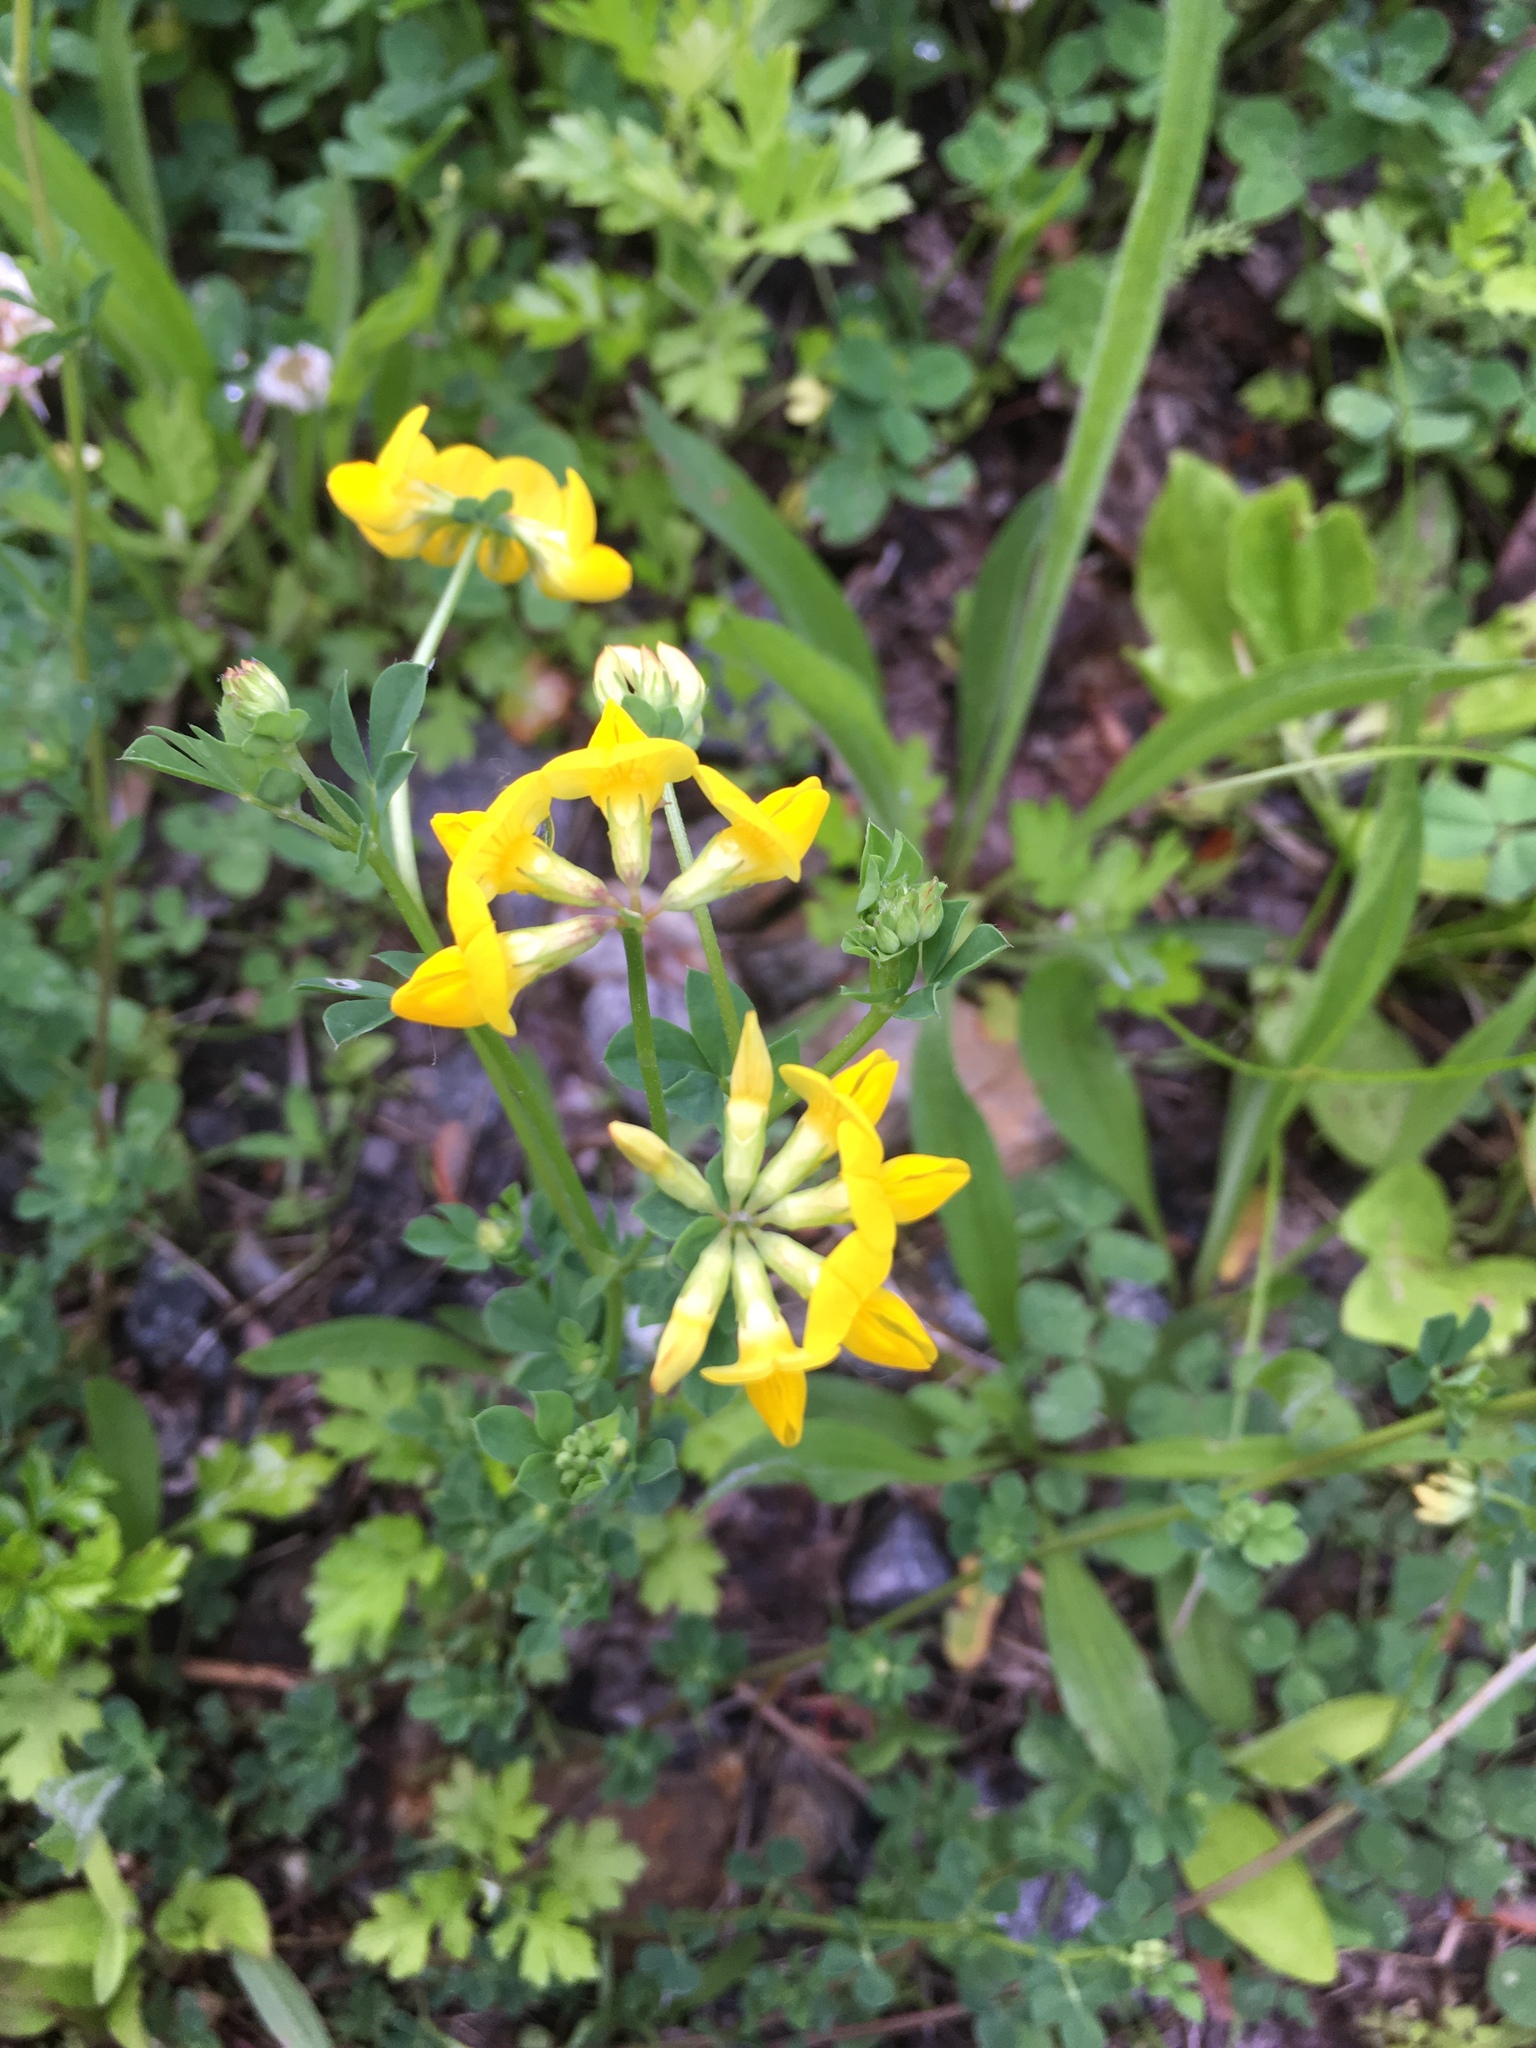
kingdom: Plantae
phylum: Tracheophyta
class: Magnoliopsida
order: Fabales
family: Fabaceae
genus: Lotus
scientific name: Lotus corniculatus
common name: Common bird's-foot-trefoil
